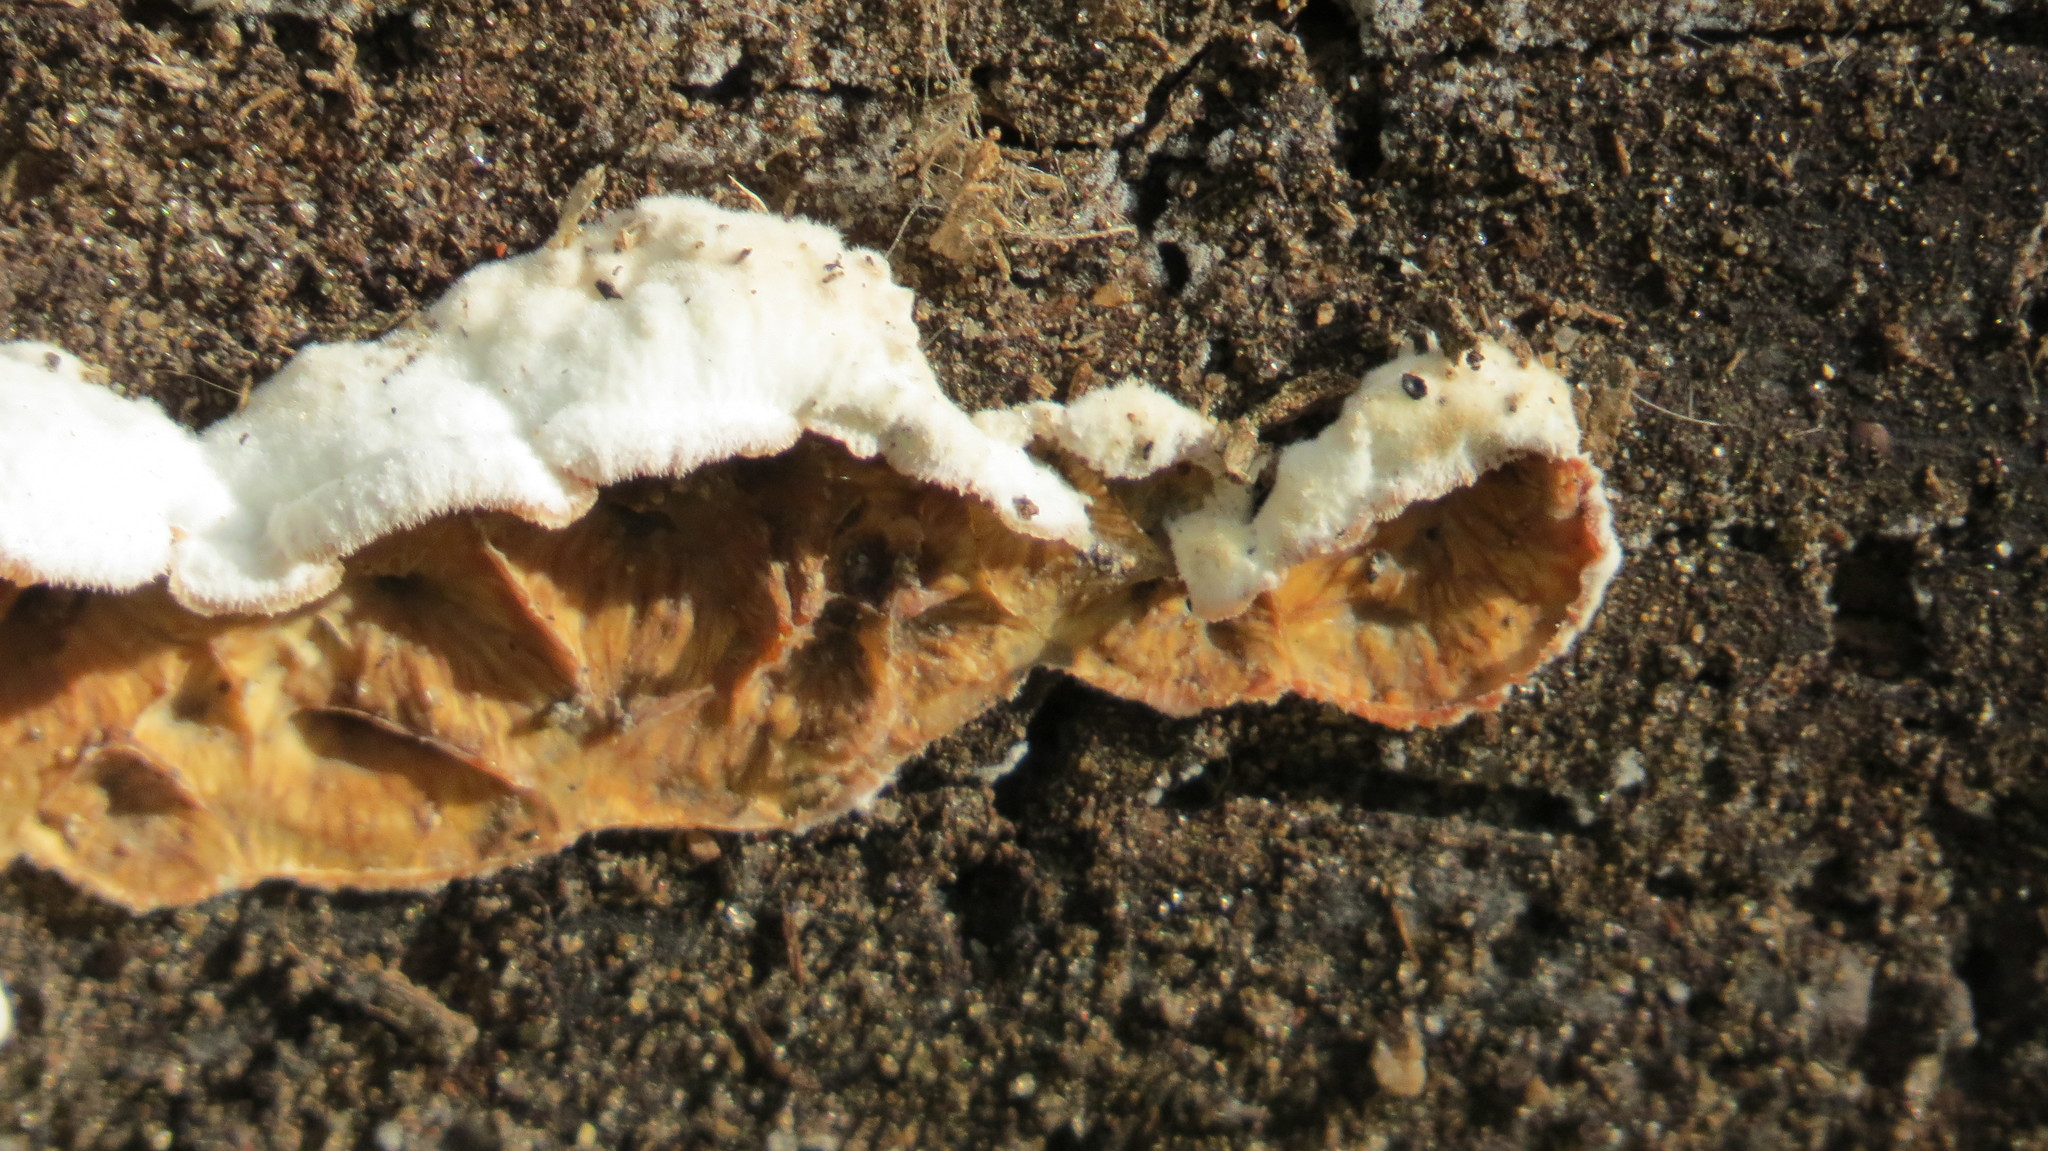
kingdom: Fungi
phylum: Basidiomycota
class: Agaricomycetes
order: Polyporales
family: Meruliaceae
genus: Phlebia
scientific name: Phlebia tremellosa
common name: Jelly rot
